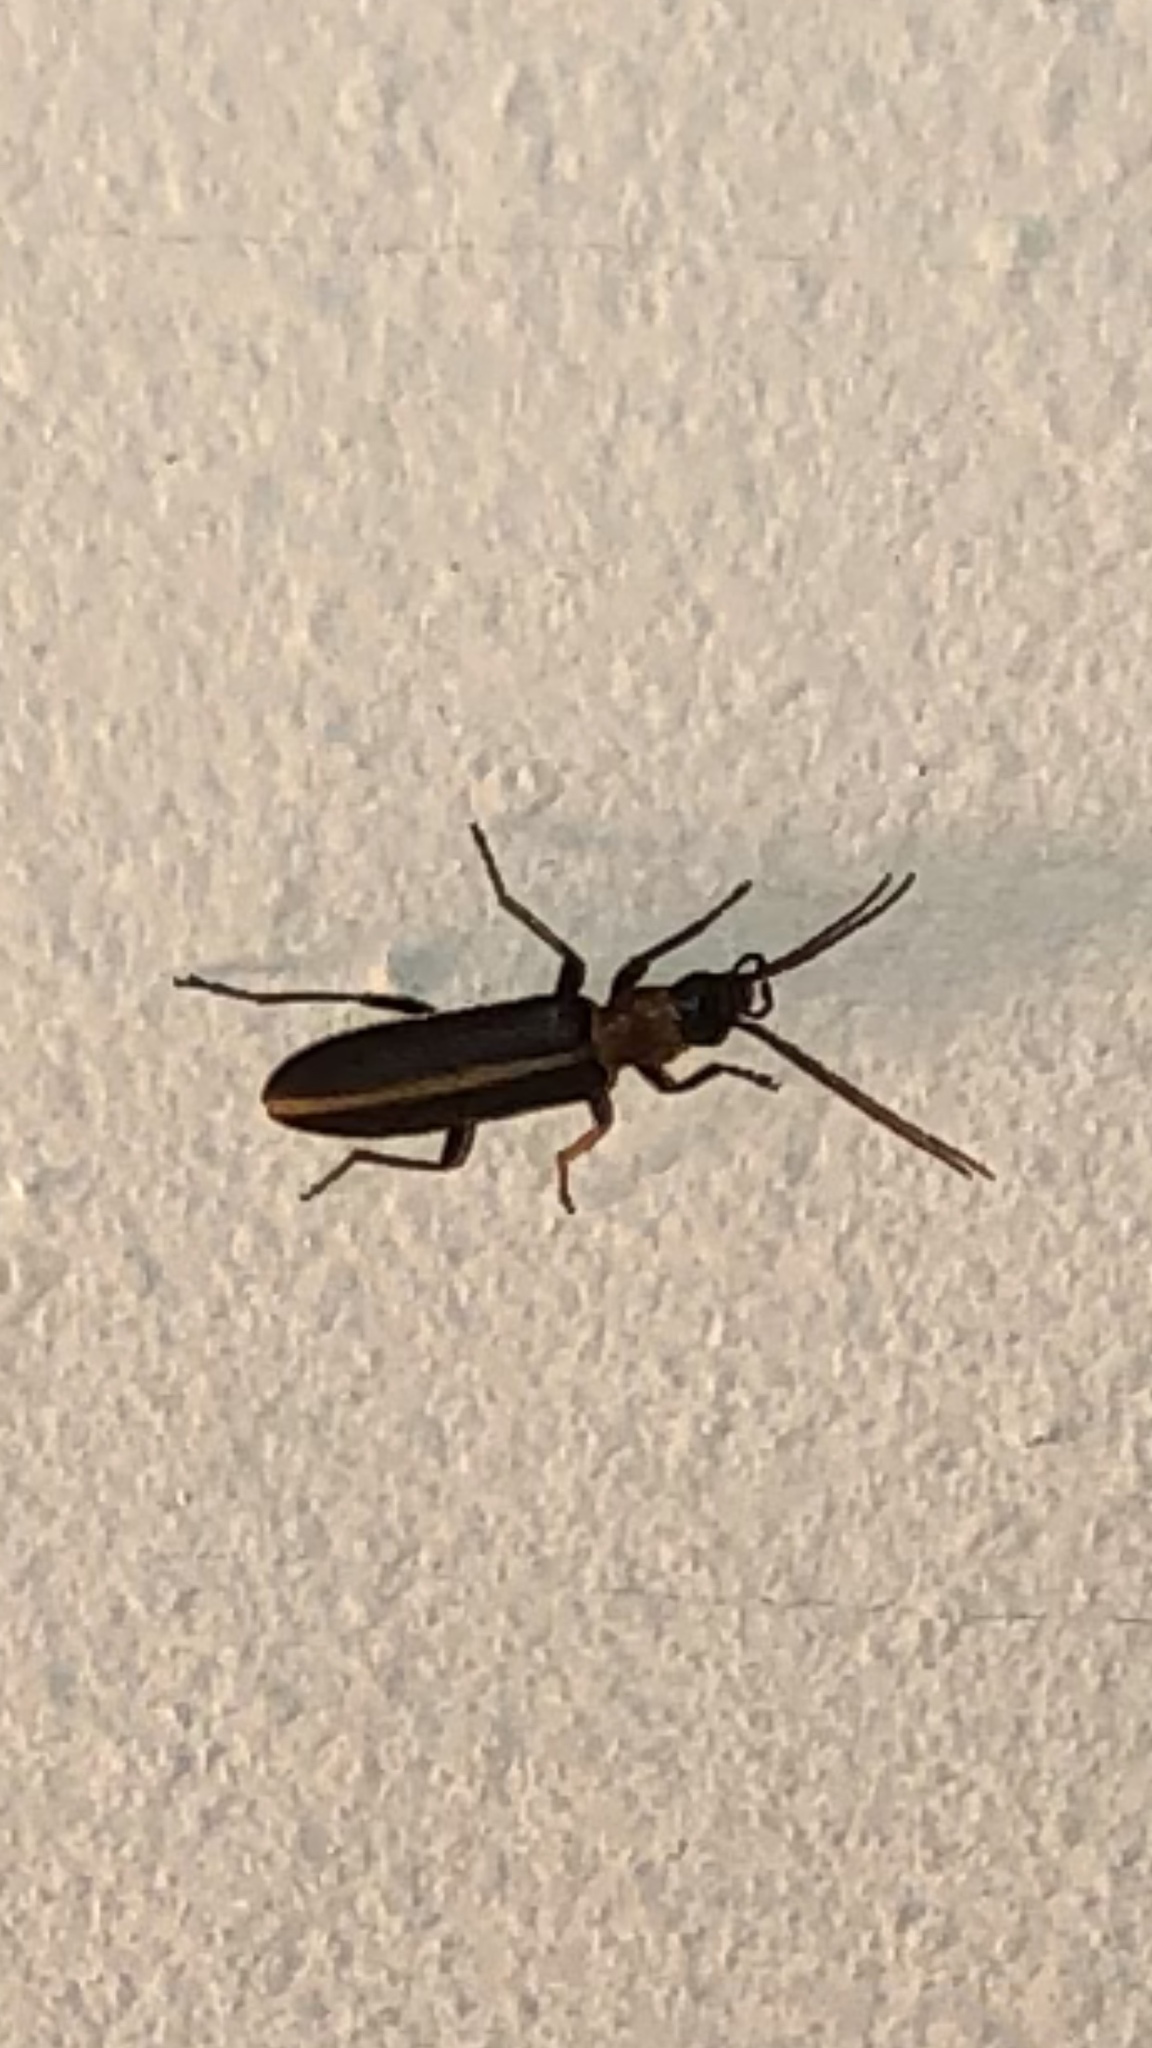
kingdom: Animalia
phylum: Arthropoda
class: Insecta
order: Coleoptera
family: Oedemeridae
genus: Oxycopis
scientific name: Oxycopis mimetica
